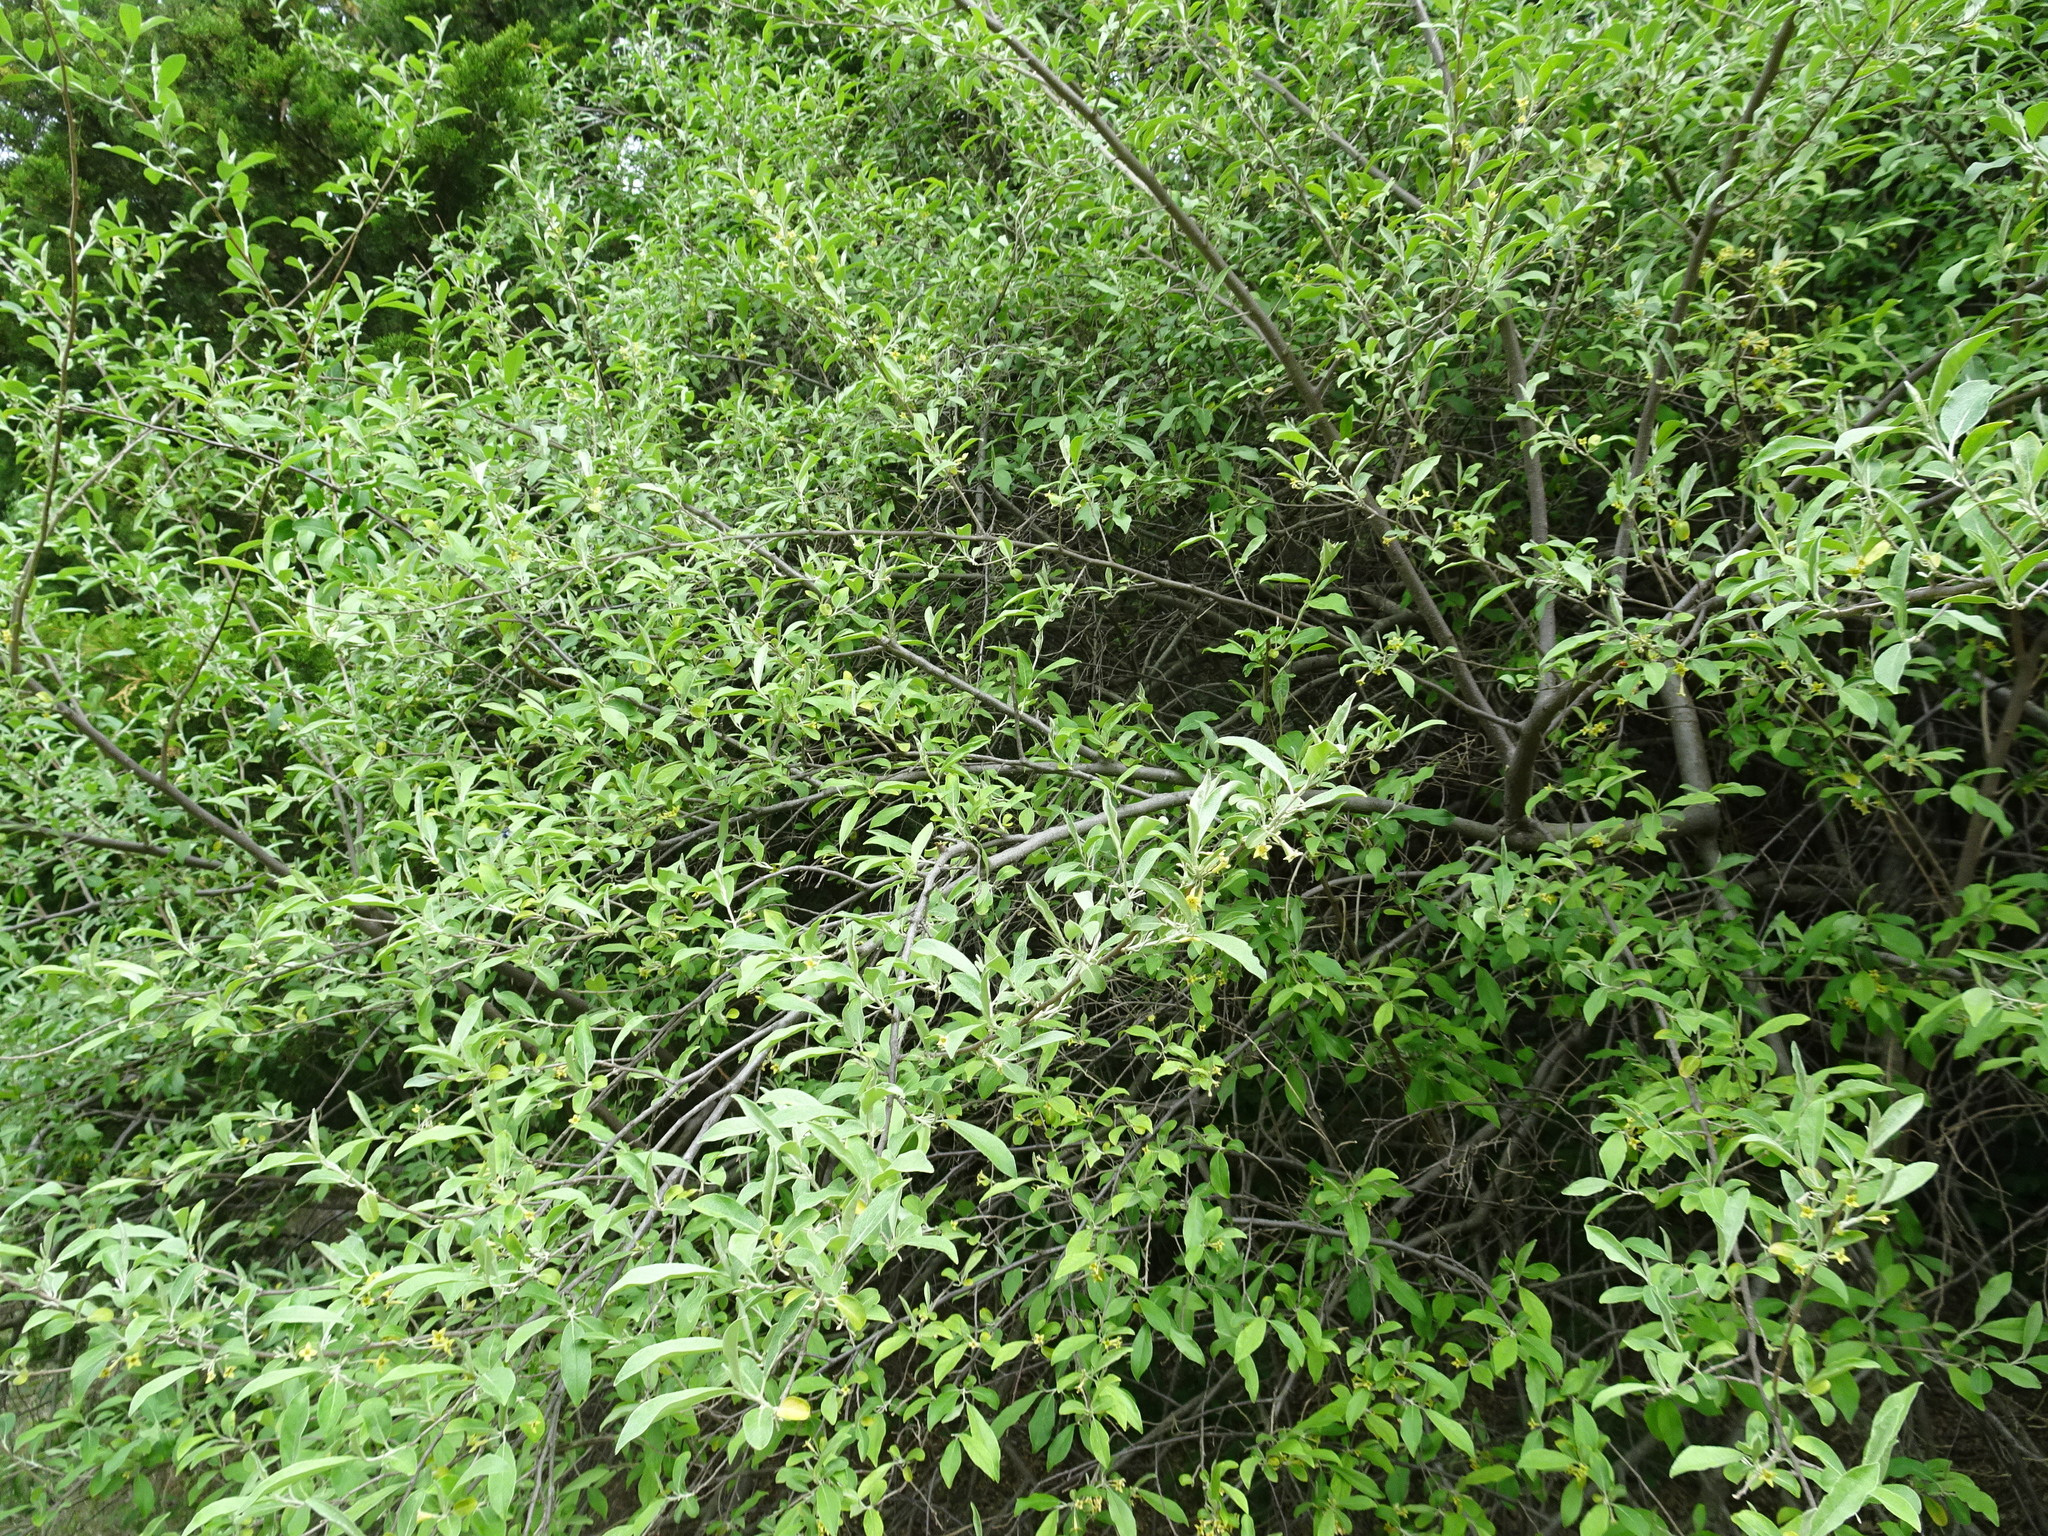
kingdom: Plantae
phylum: Tracheophyta
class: Magnoliopsida
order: Rosales
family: Elaeagnaceae
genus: Elaeagnus
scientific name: Elaeagnus umbellata
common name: Autumn olive
